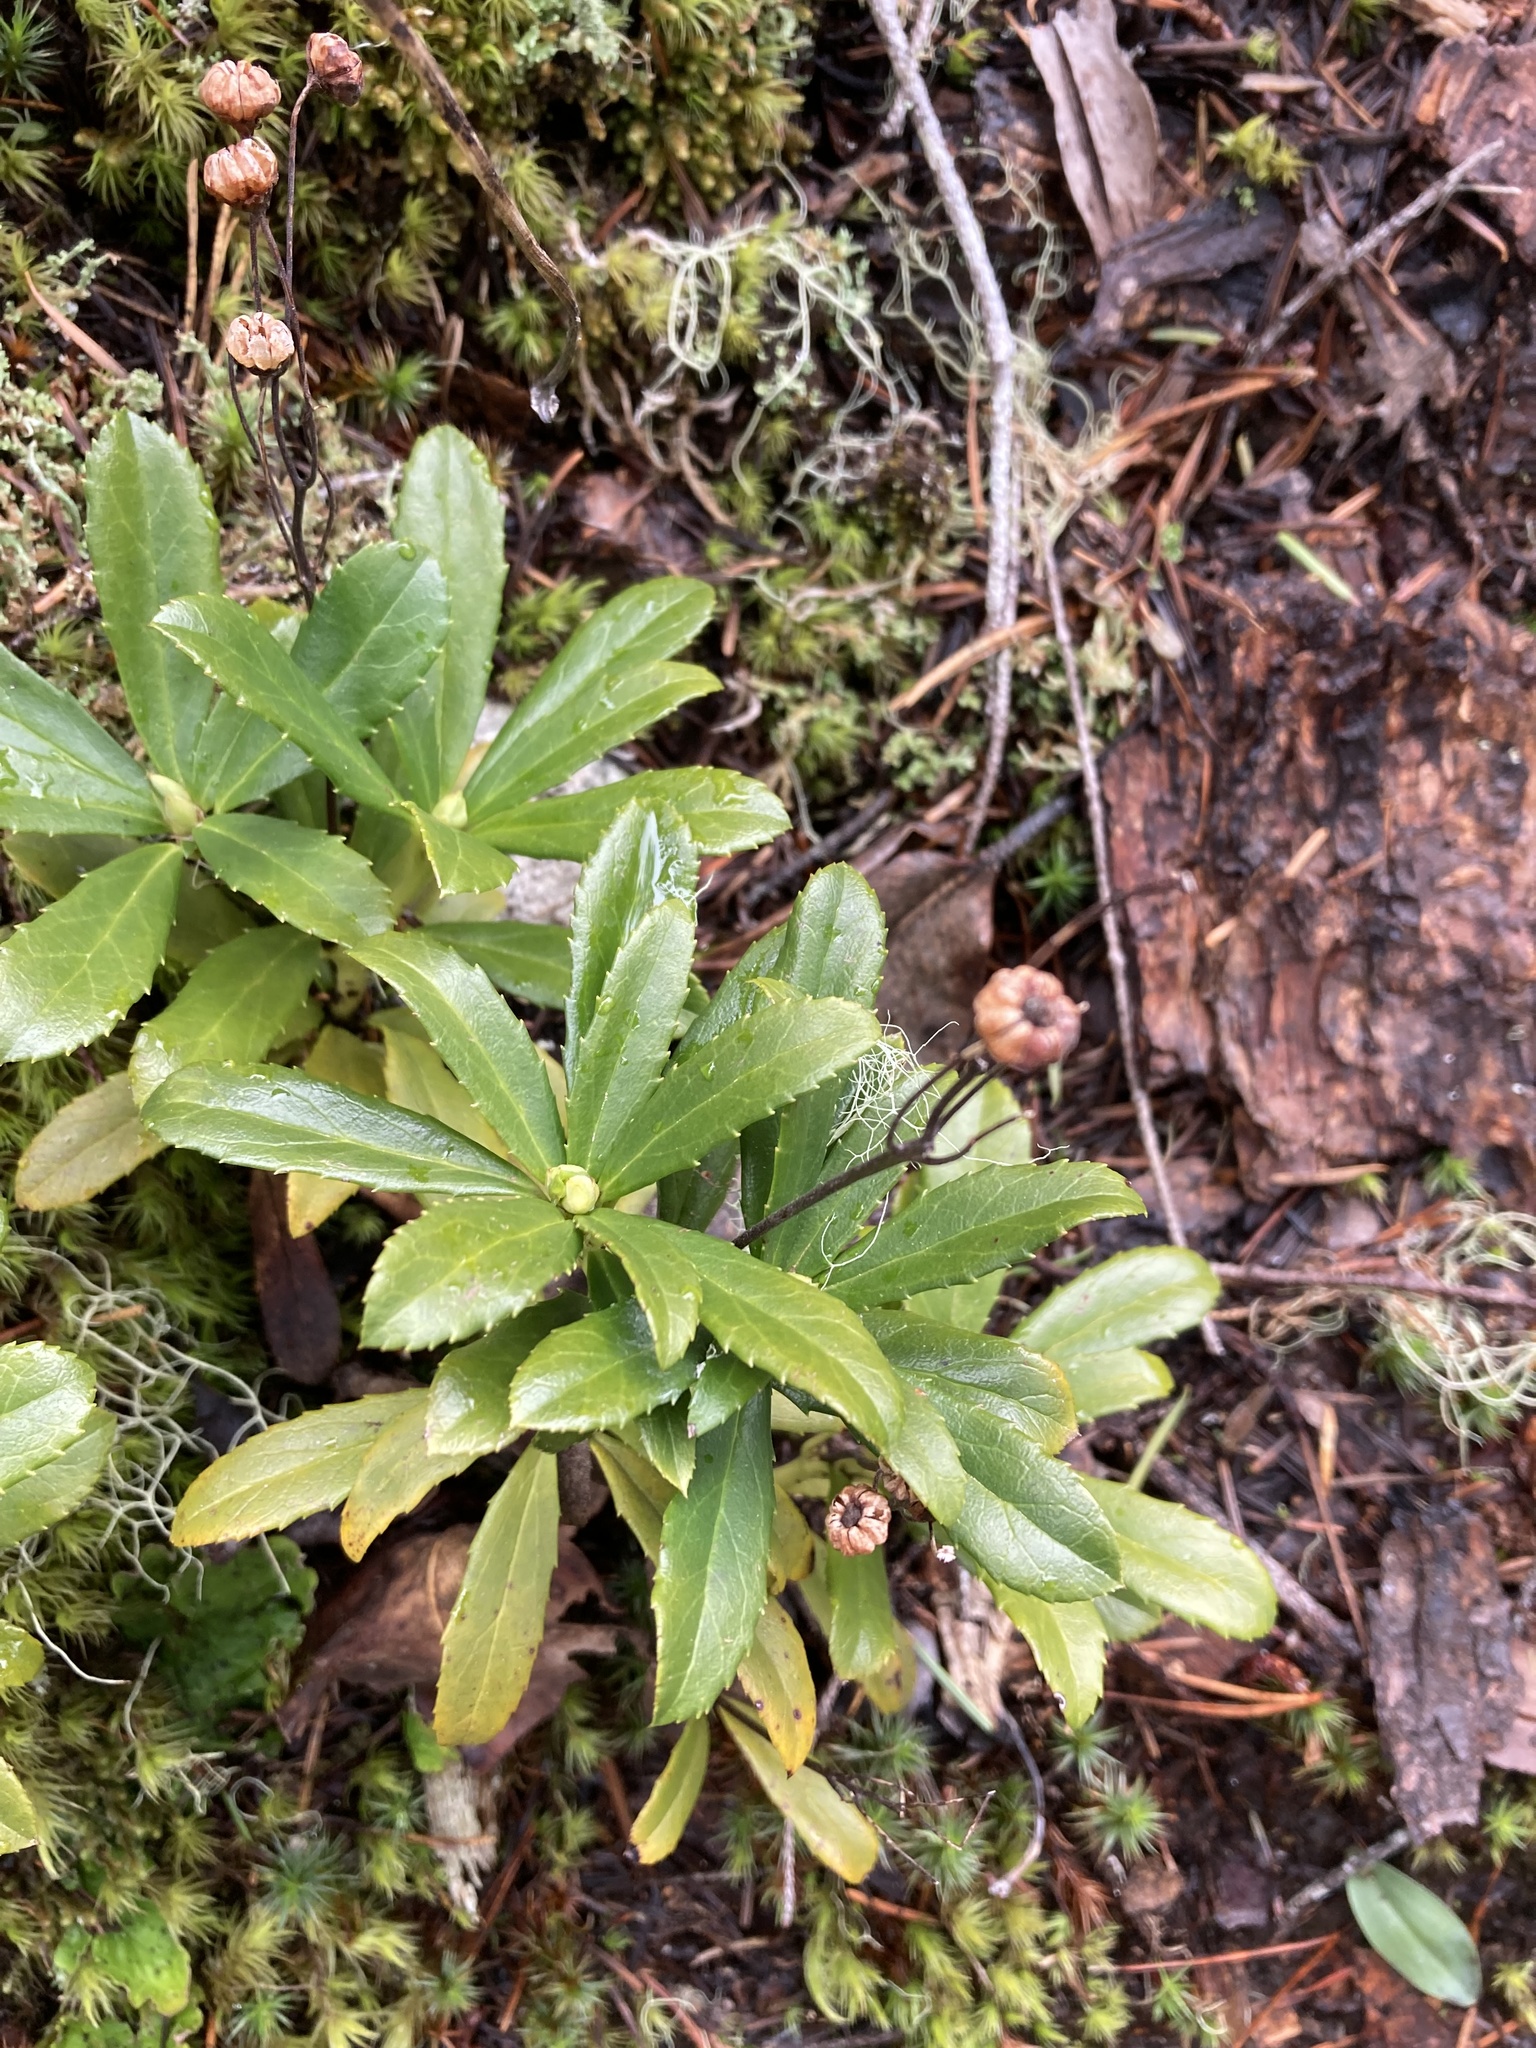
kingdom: Plantae
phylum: Tracheophyta
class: Magnoliopsida
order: Ericales
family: Ericaceae
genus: Chimaphila
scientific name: Chimaphila umbellata
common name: Pipsissewa
